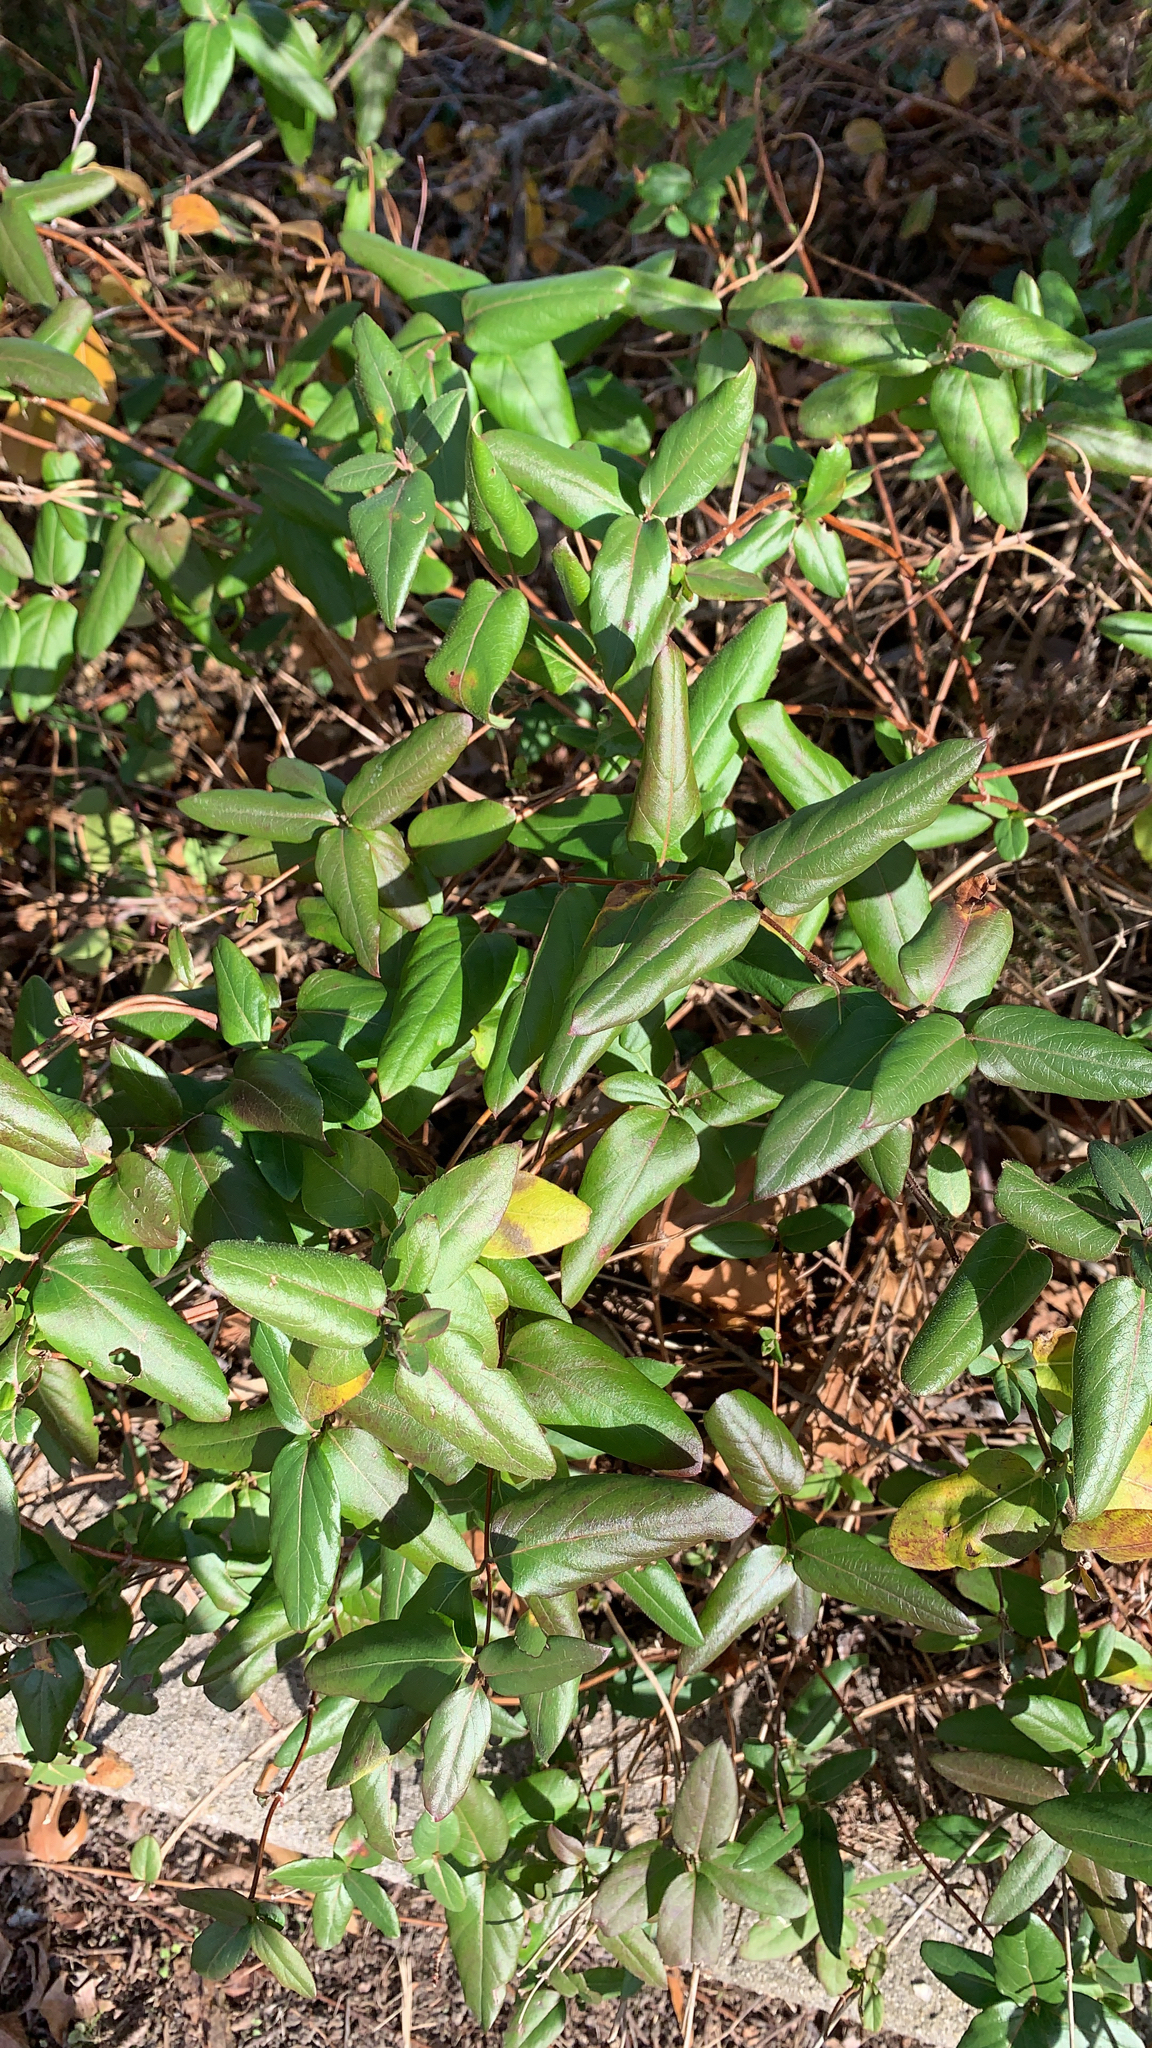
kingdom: Plantae
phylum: Tracheophyta
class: Magnoliopsida
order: Dipsacales
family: Caprifoliaceae
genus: Lonicera
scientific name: Lonicera japonica
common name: Japanese honeysuckle
